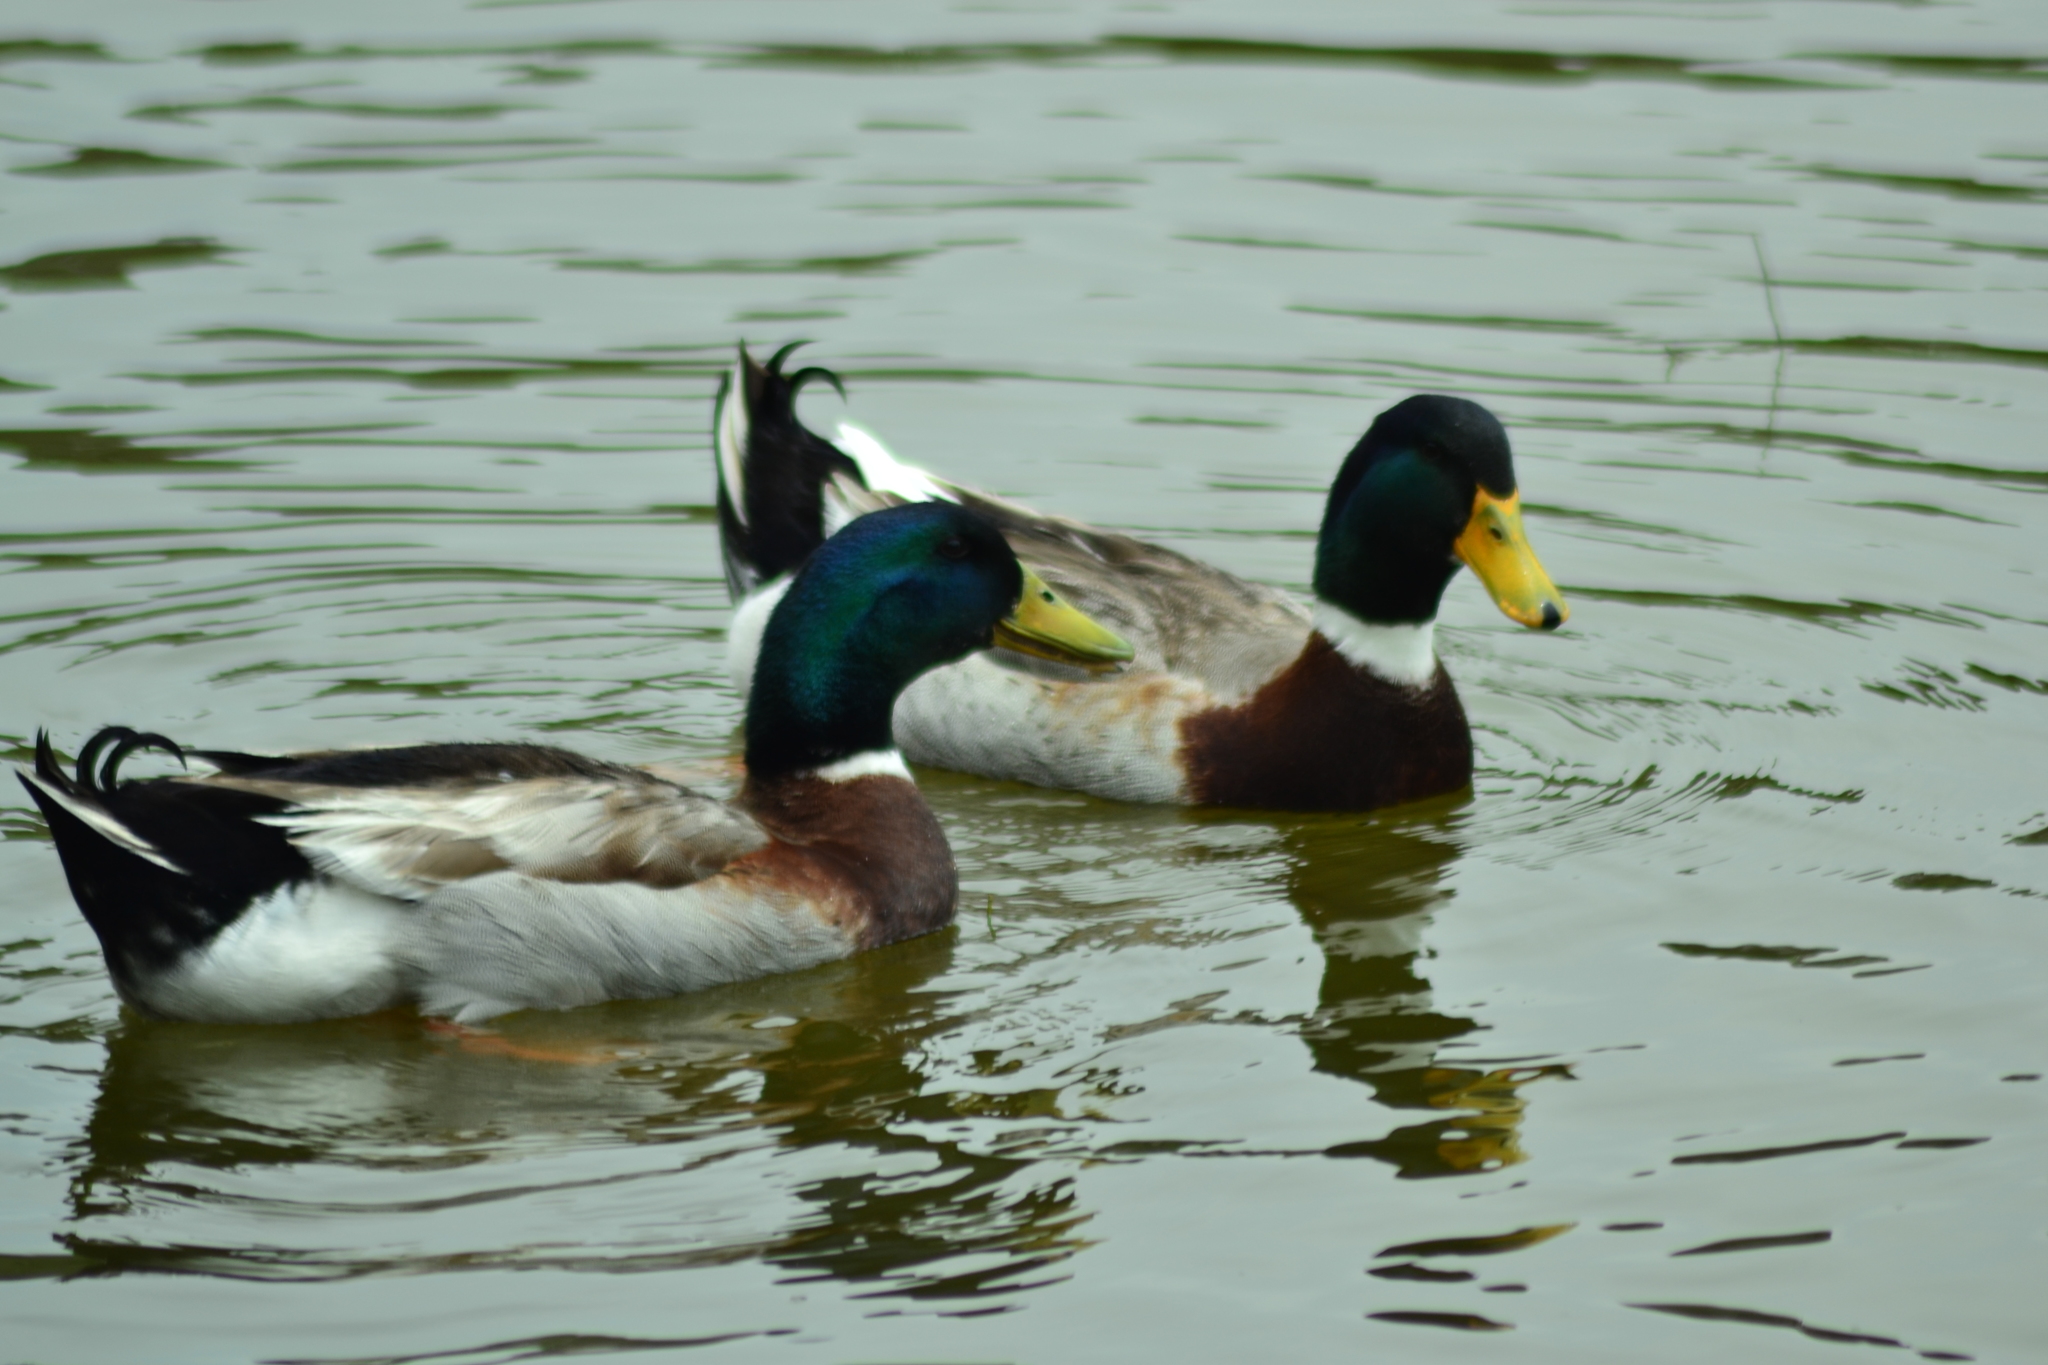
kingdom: Animalia
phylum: Chordata
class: Aves
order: Anseriformes
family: Anatidae
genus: Anas
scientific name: Anas platyrhynchos
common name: Mallard
